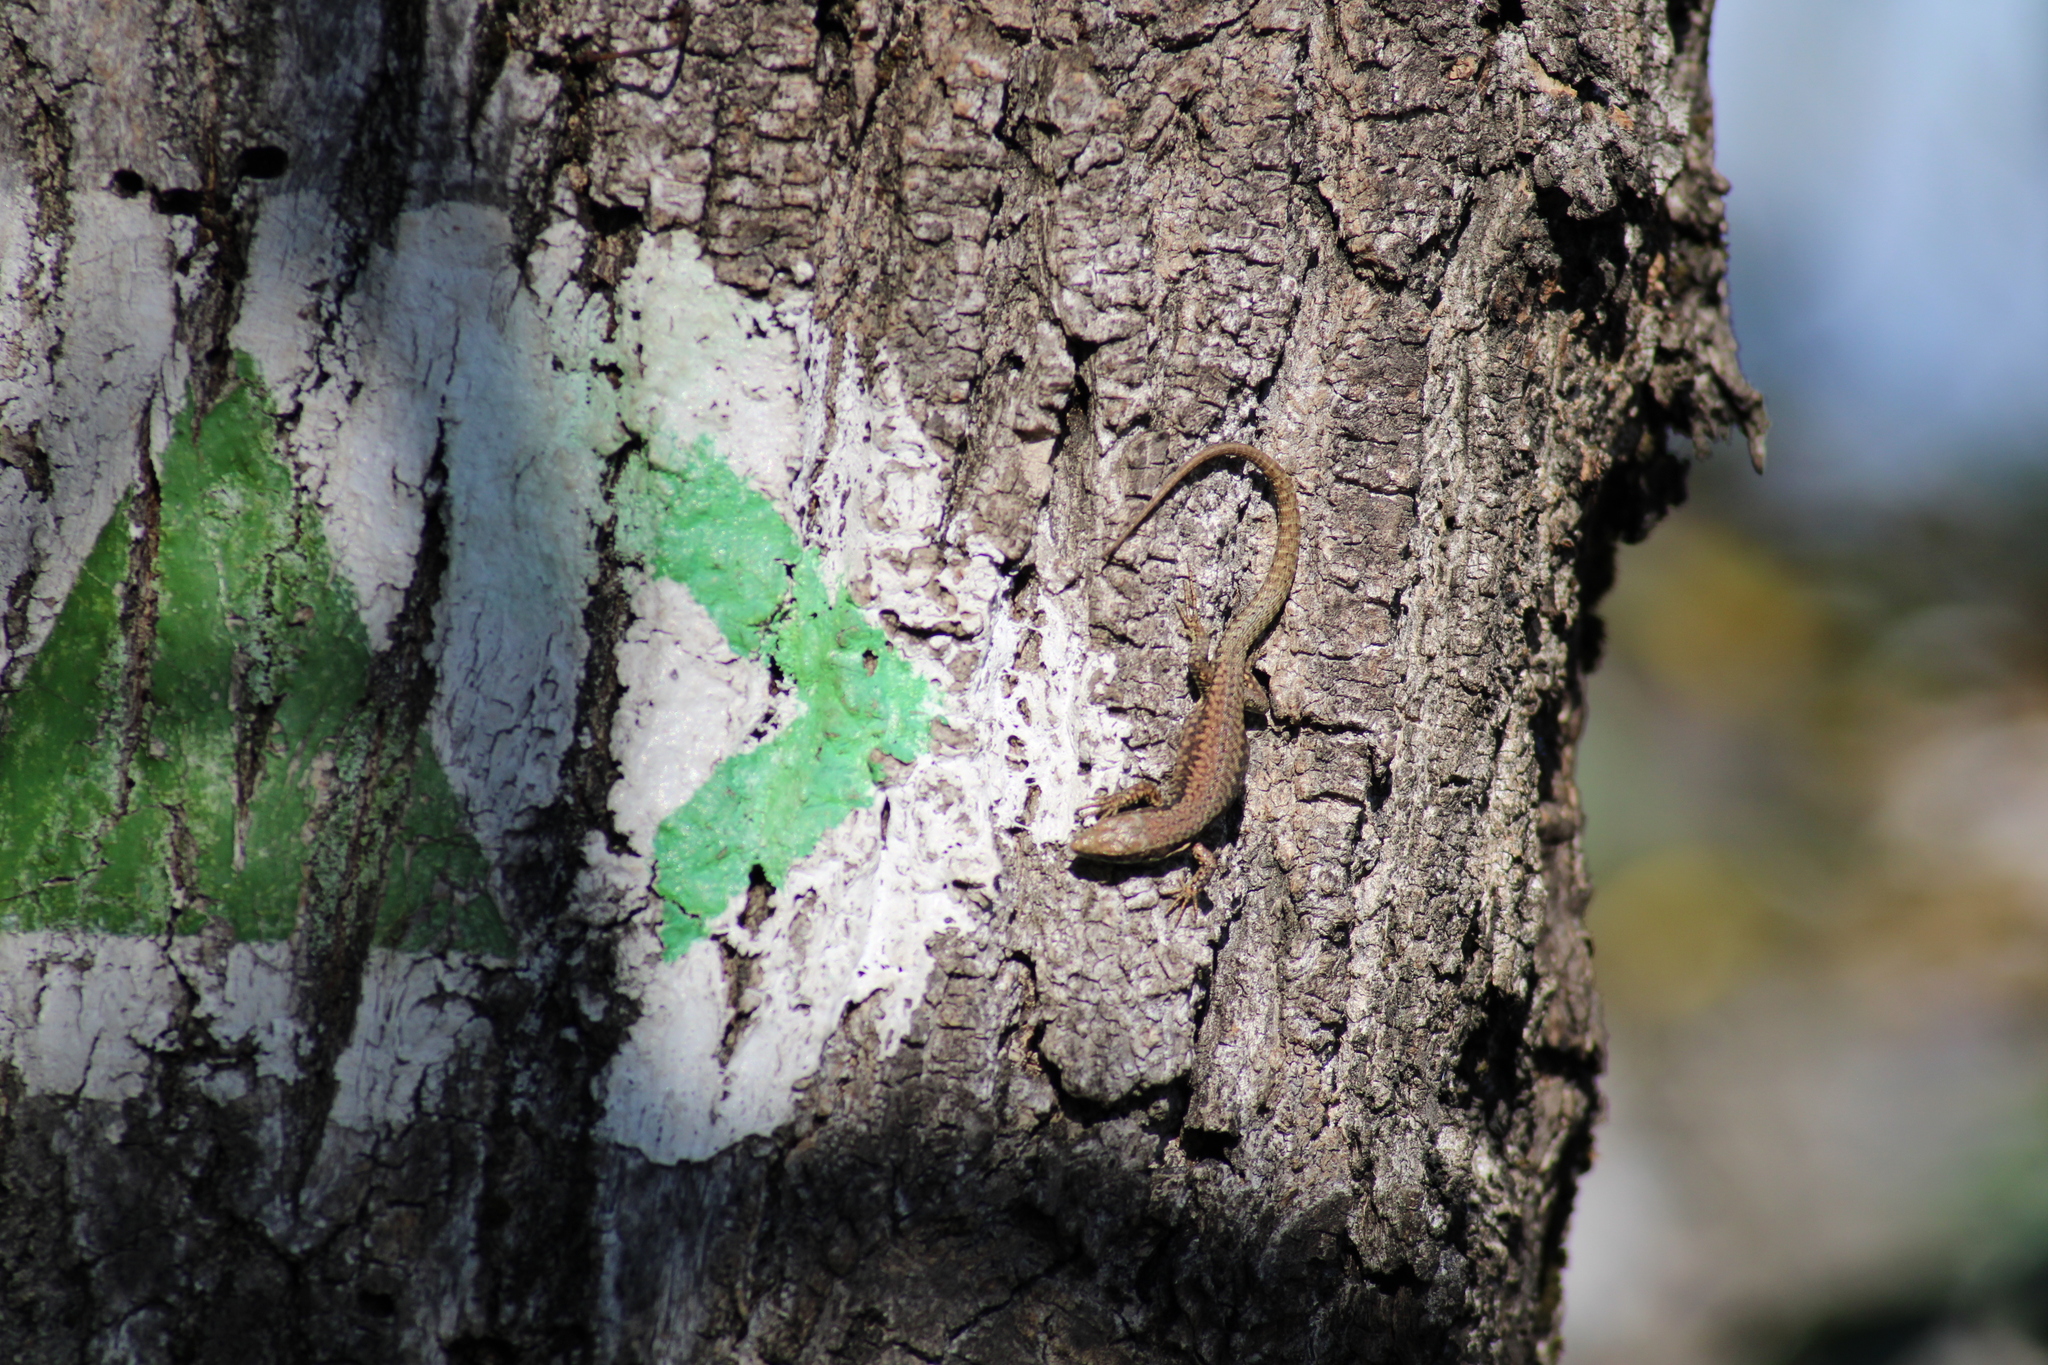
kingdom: Animalia
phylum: Chordata
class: Squamata
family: Lacertidae
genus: Podarcis
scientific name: Podarcis muralis
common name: Common wall lizard
